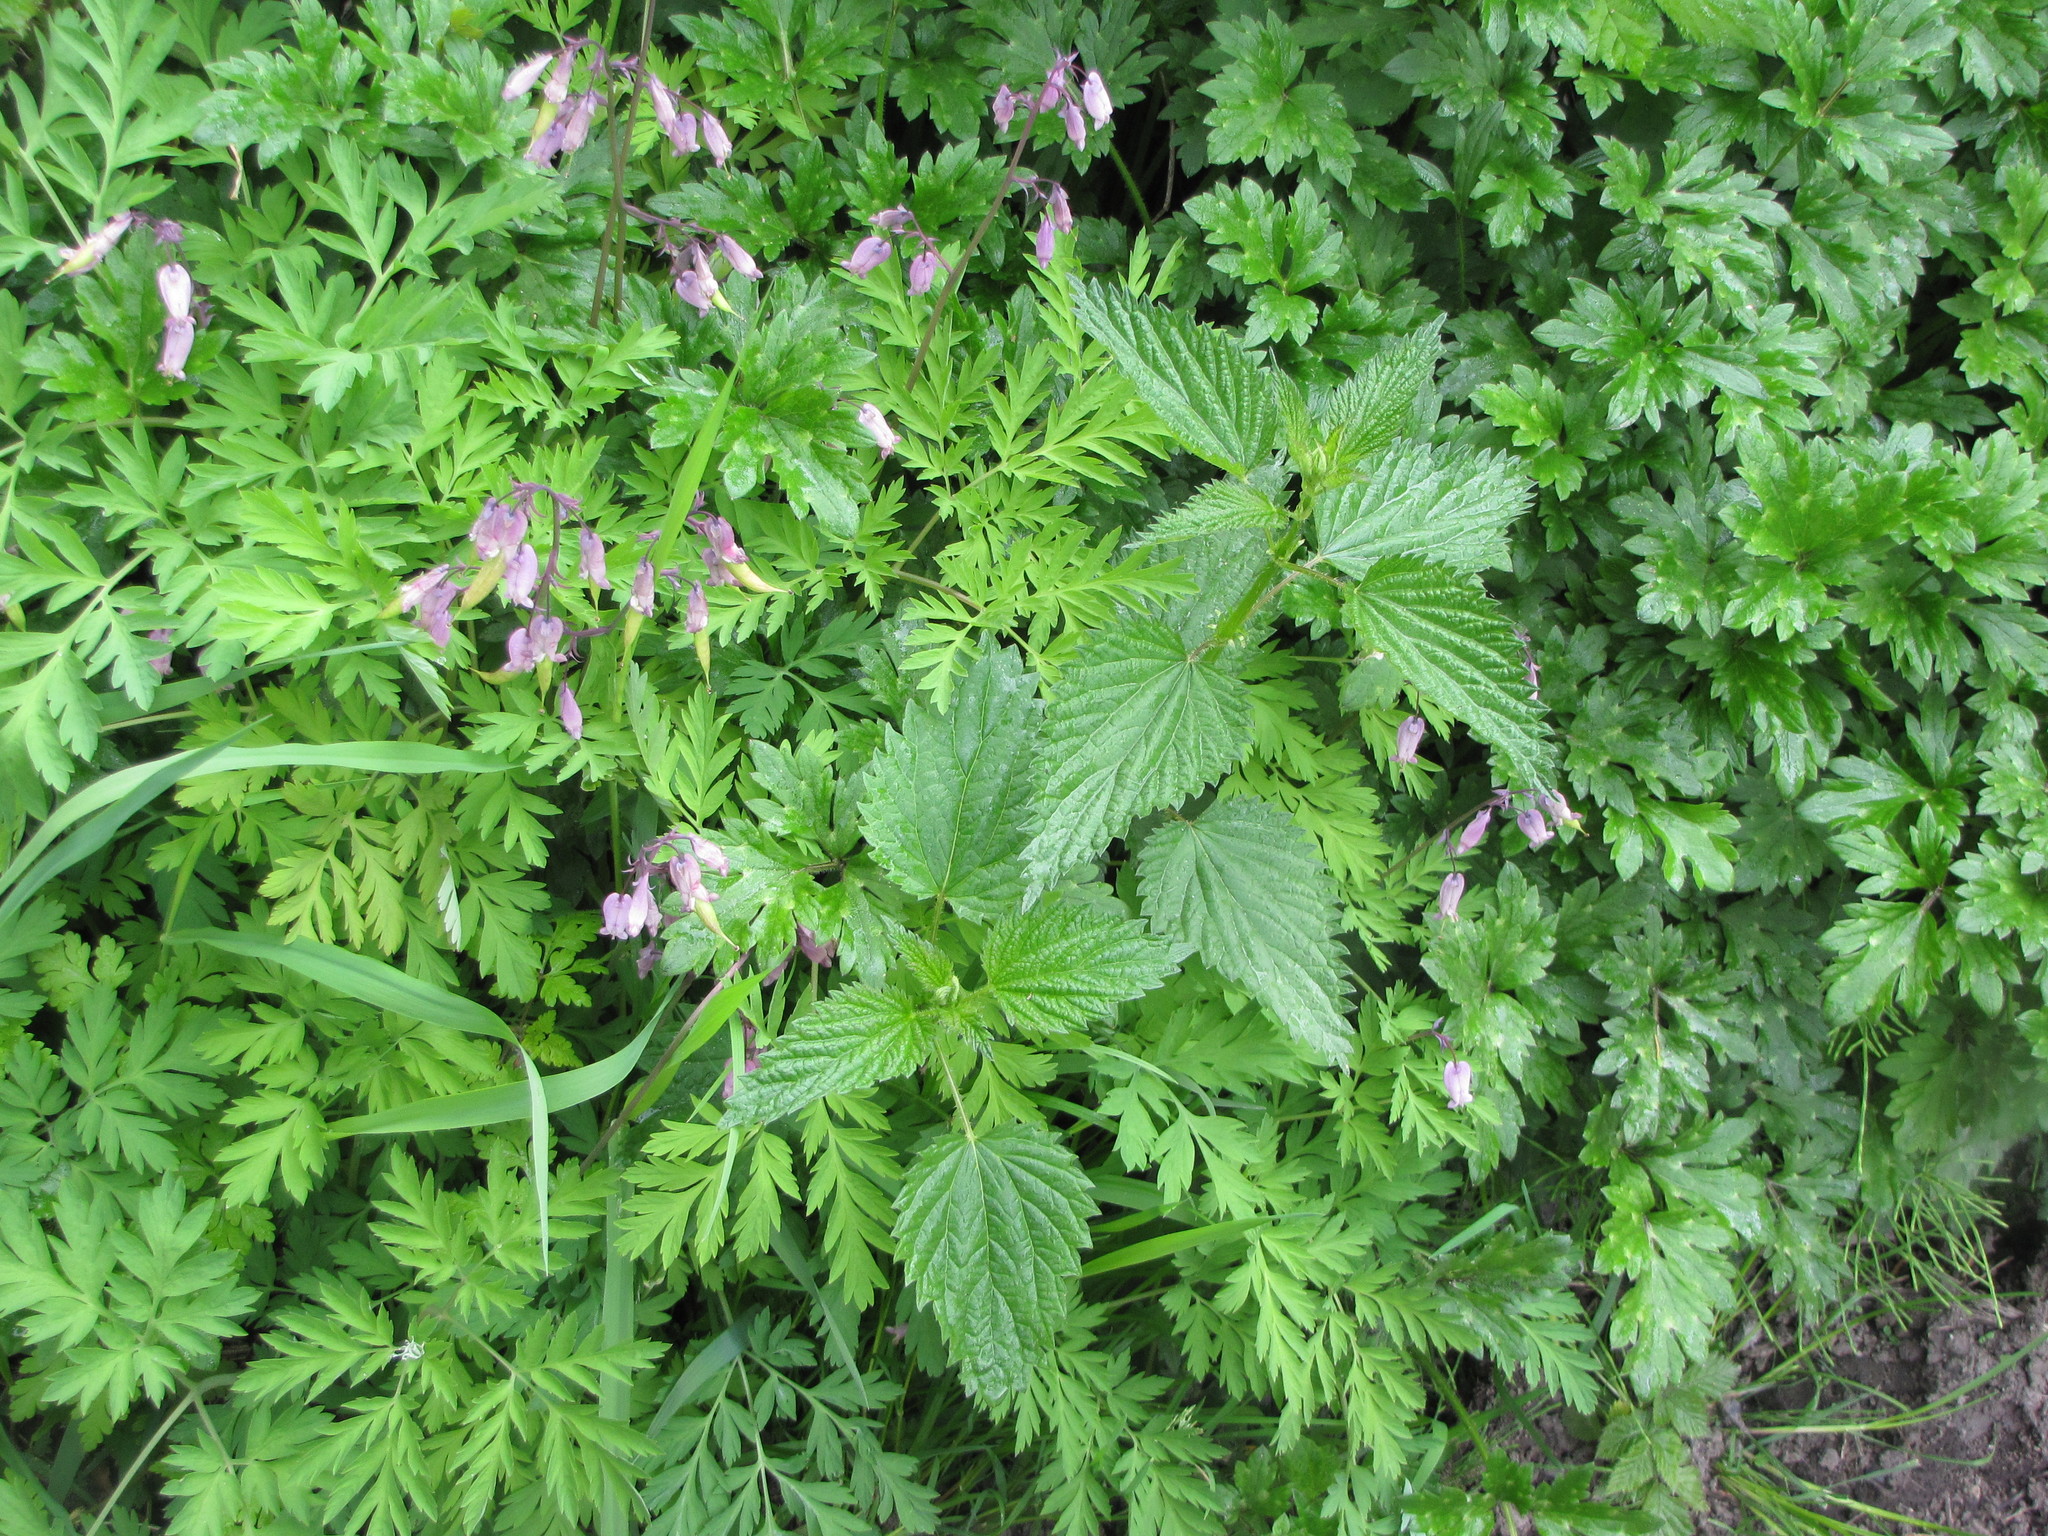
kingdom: Plantae
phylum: Tracheophyta
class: Magnoliopsida
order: Ranunculales
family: Papaveraceae
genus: Dicentra
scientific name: Dicentra formosa
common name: Bleeding-heart
